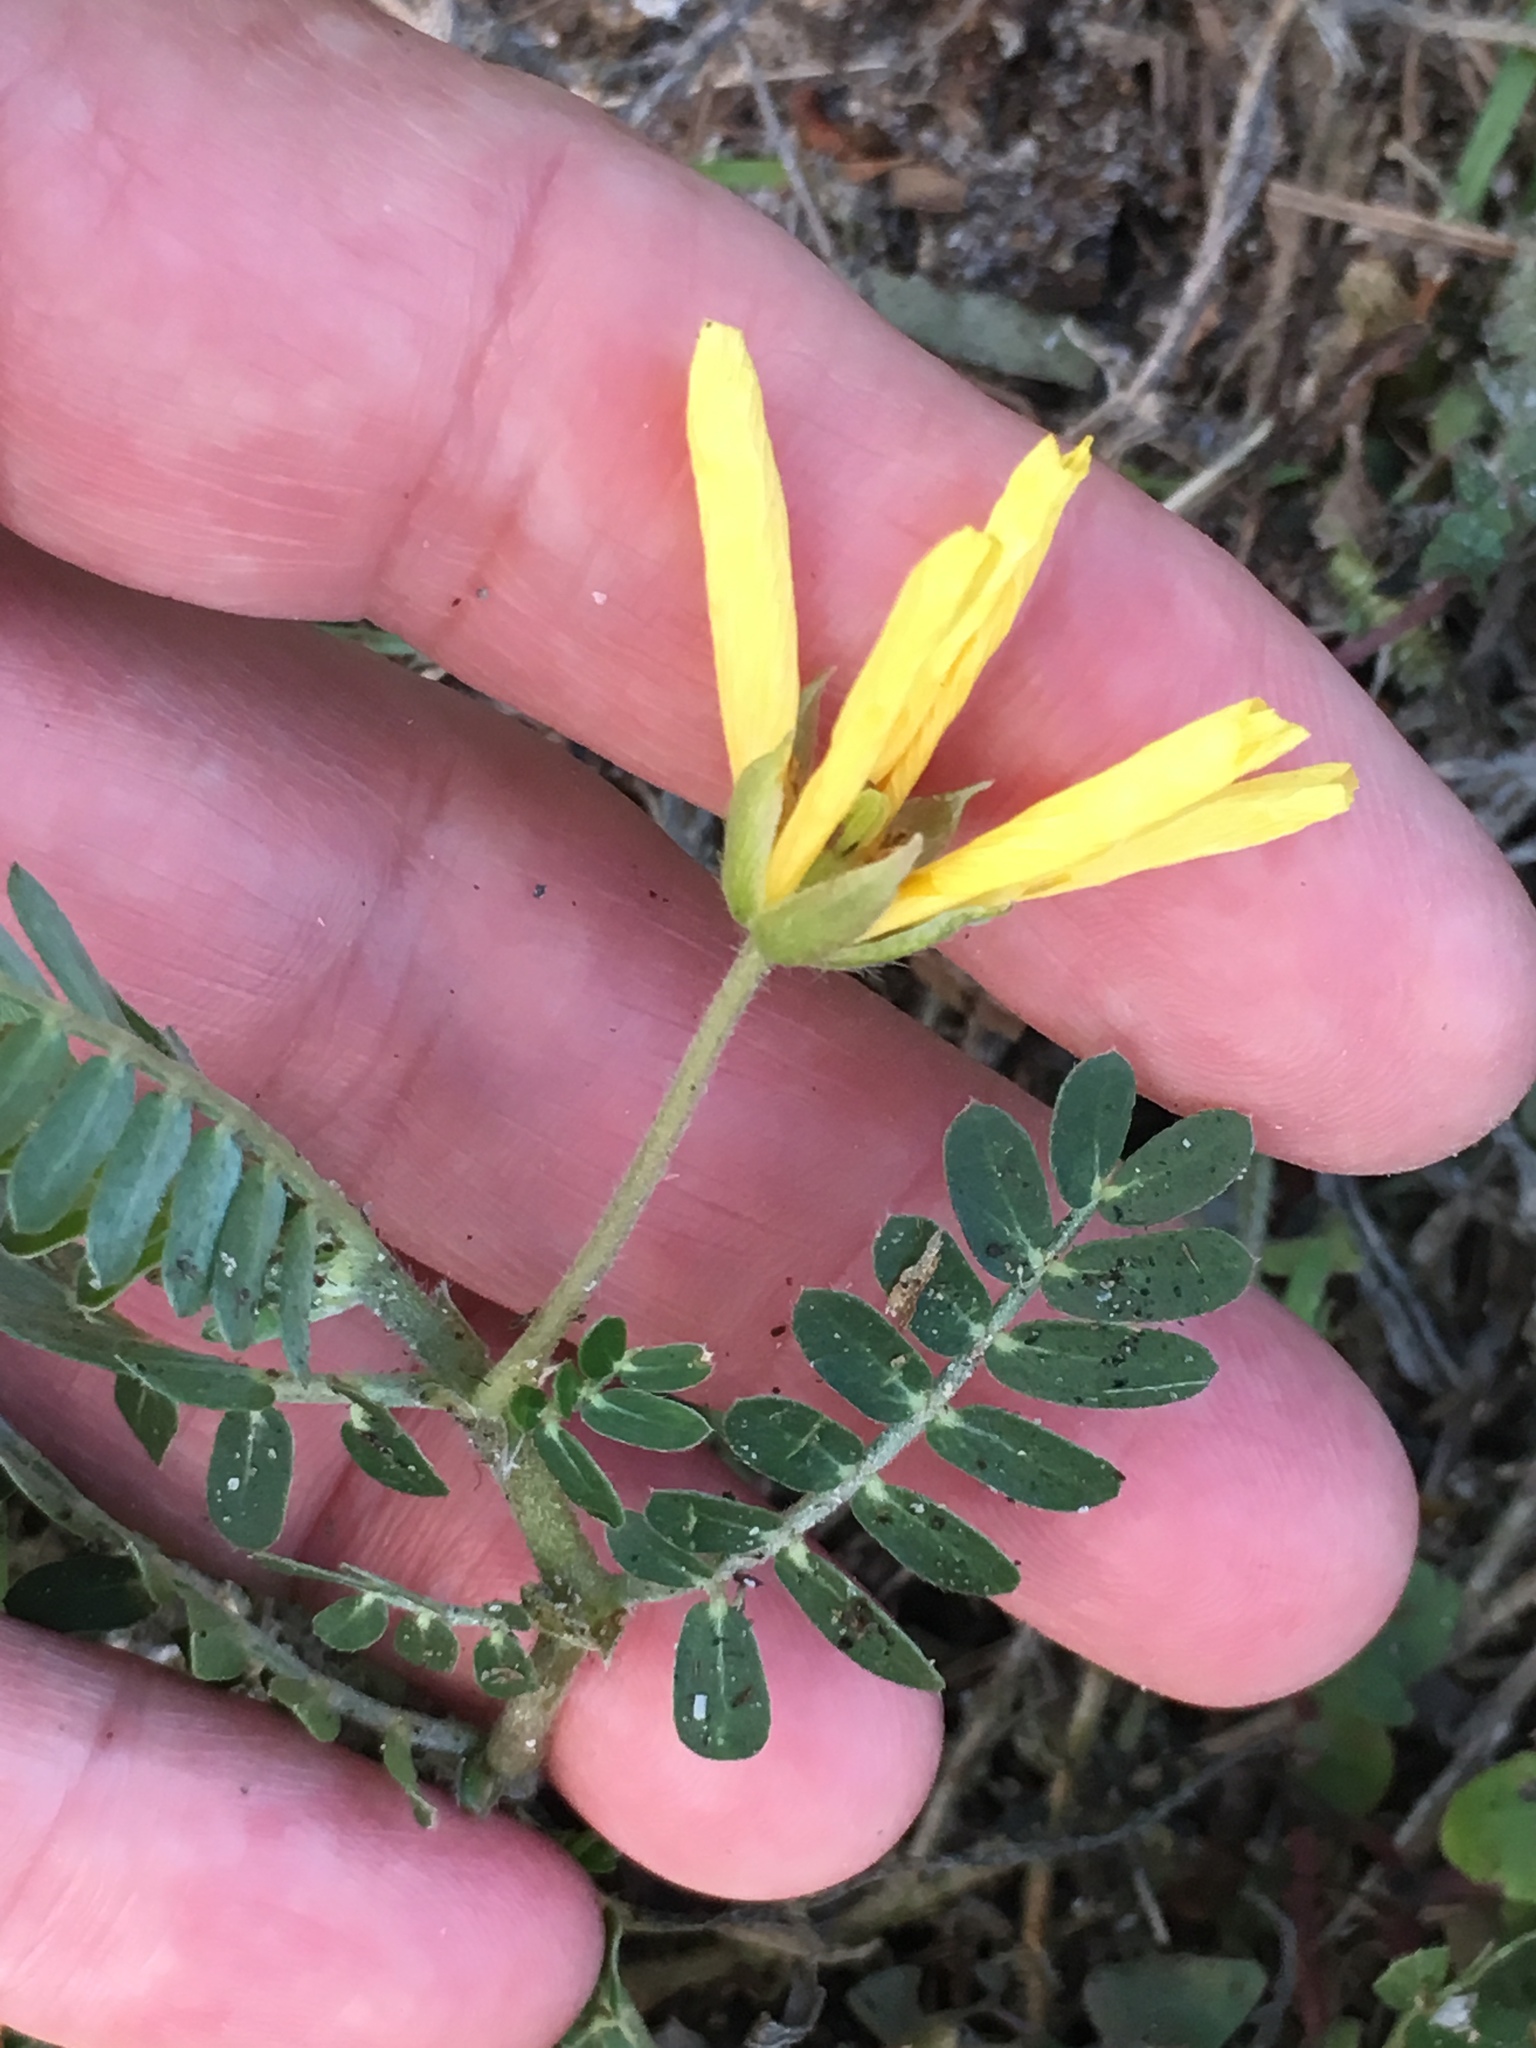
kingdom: Plantae
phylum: Tracheophyta
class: Magnoliopsida
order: Zygophyllales
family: Zygophyllaceae
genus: Tribulus
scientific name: Tribulus cistoides
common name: Jamaican feverplant
